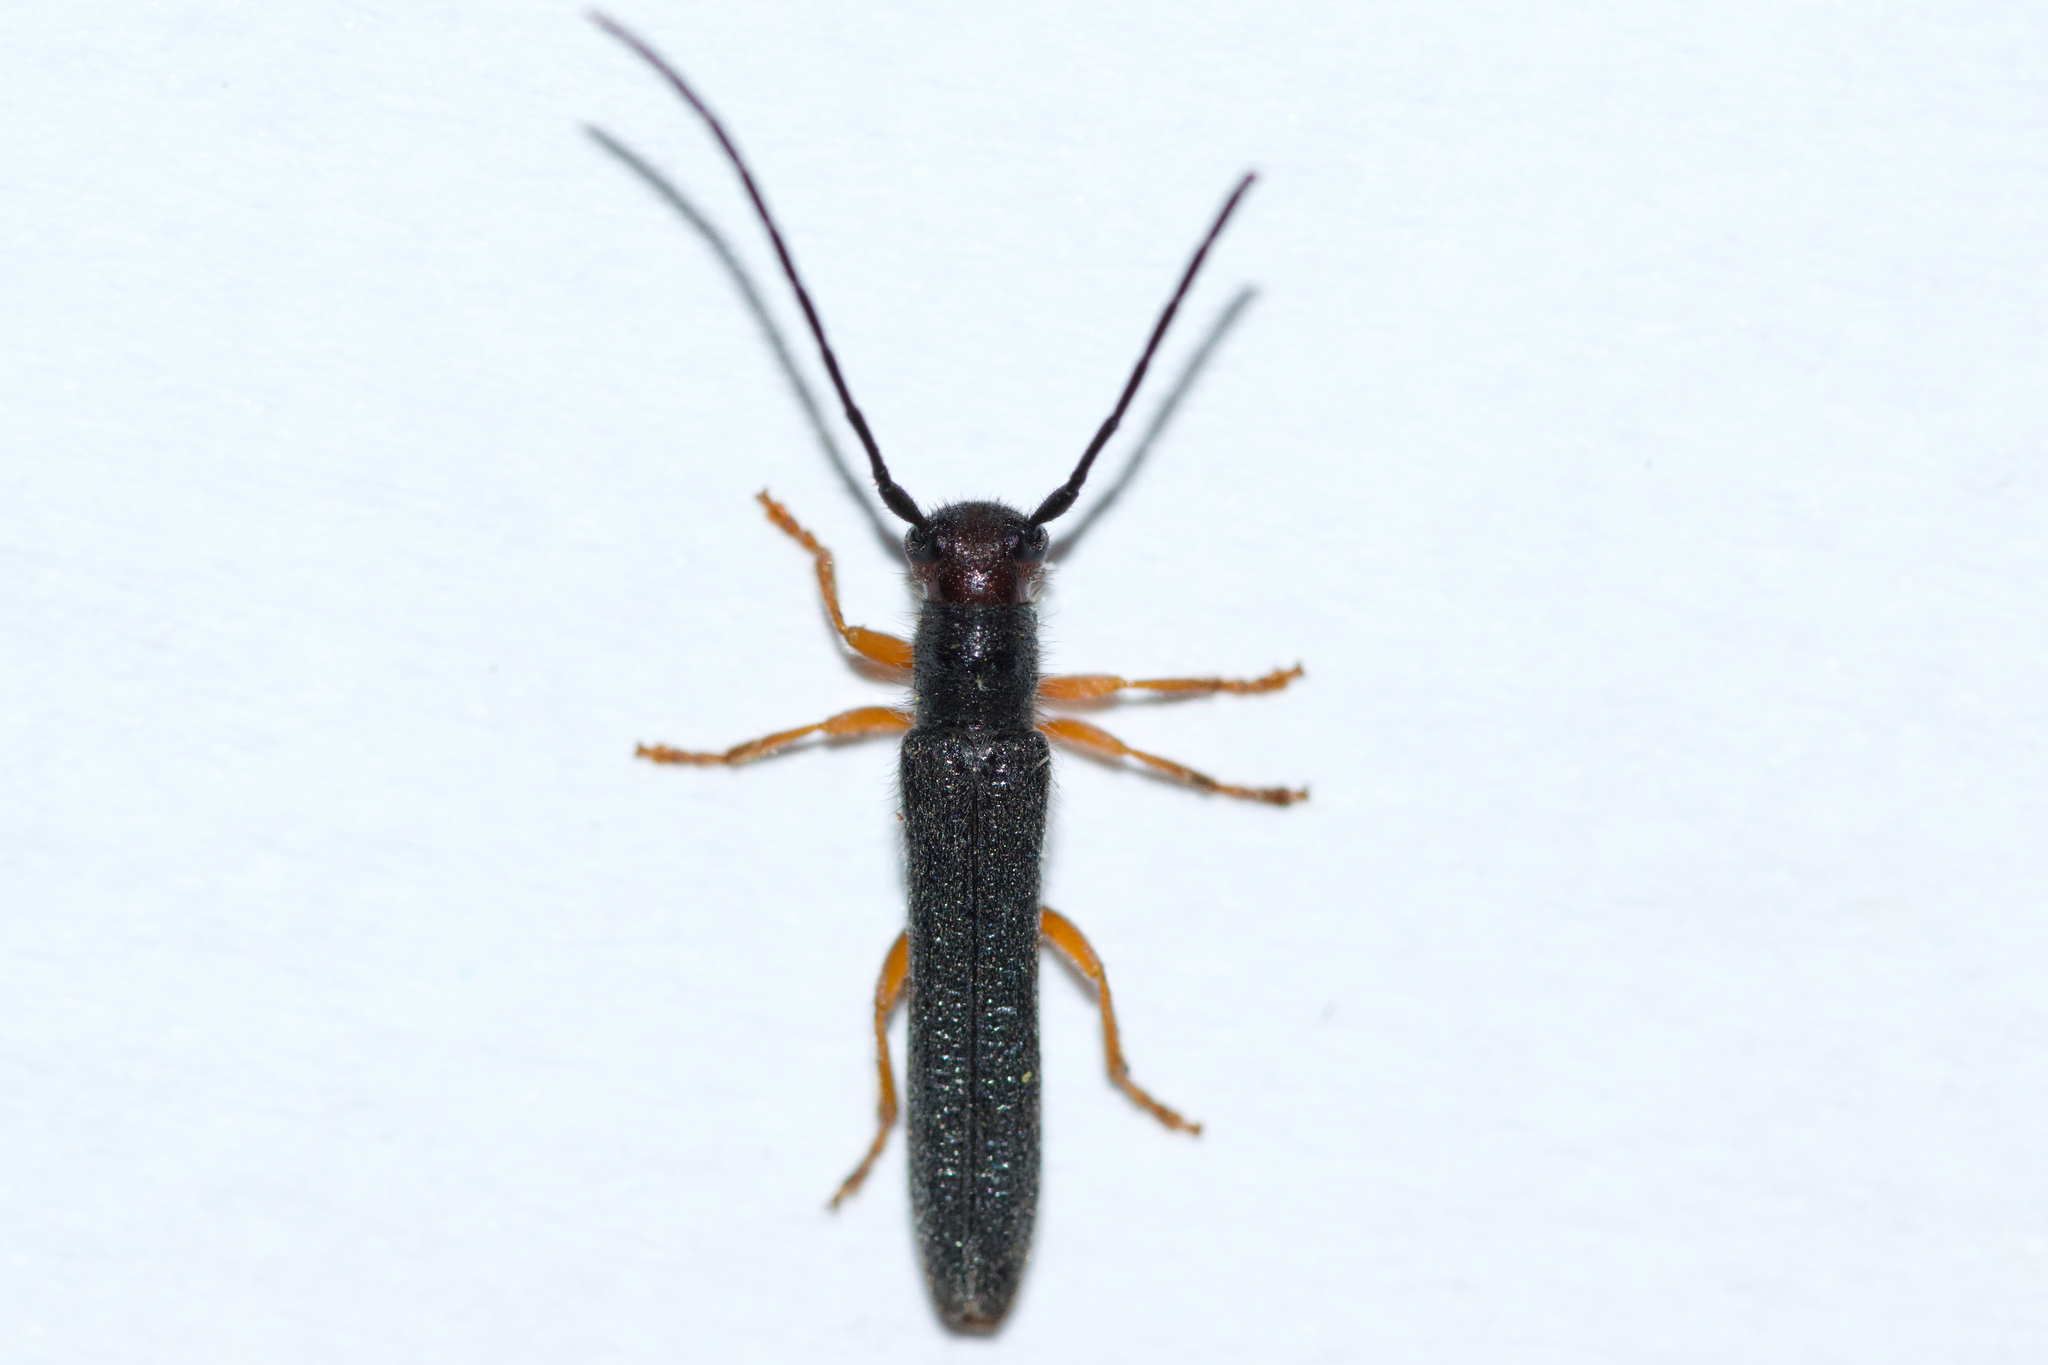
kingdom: Animalia
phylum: Arthropoda
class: Insecta
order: Coleoptera
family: Cerambycidae
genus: Oberea
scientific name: Oberea erythrocephala
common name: Leafy spurge stem boring beetle
